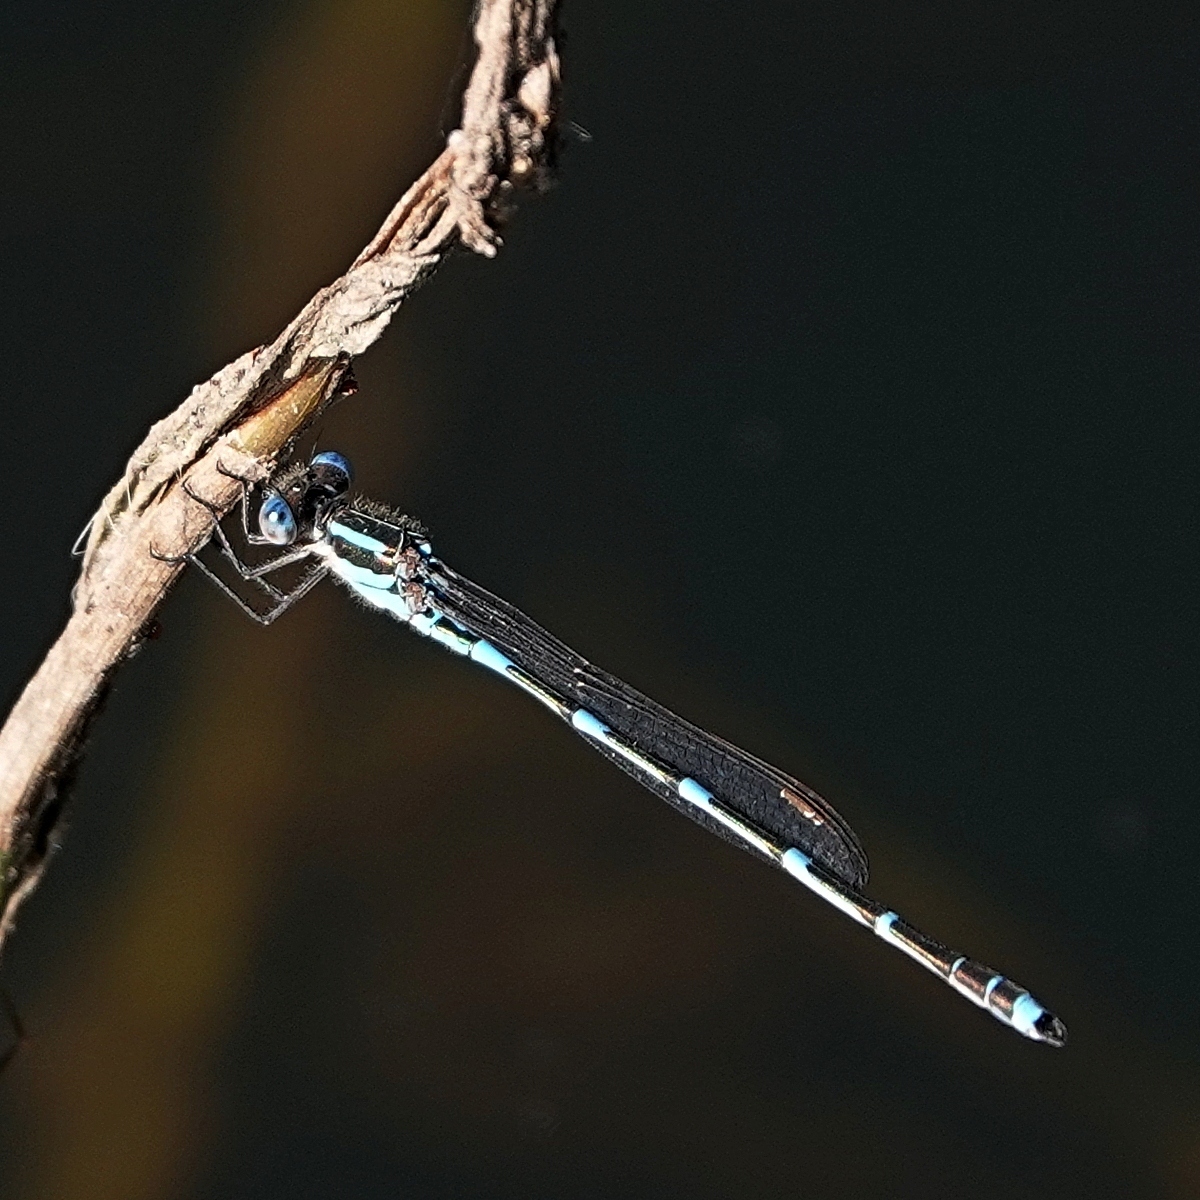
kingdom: Animalia
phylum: Arthropoda
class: Insecta
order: Odonata
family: Lestidae
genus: Austrolestes
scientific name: Austrolestes leda
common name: Wandering ringtail
